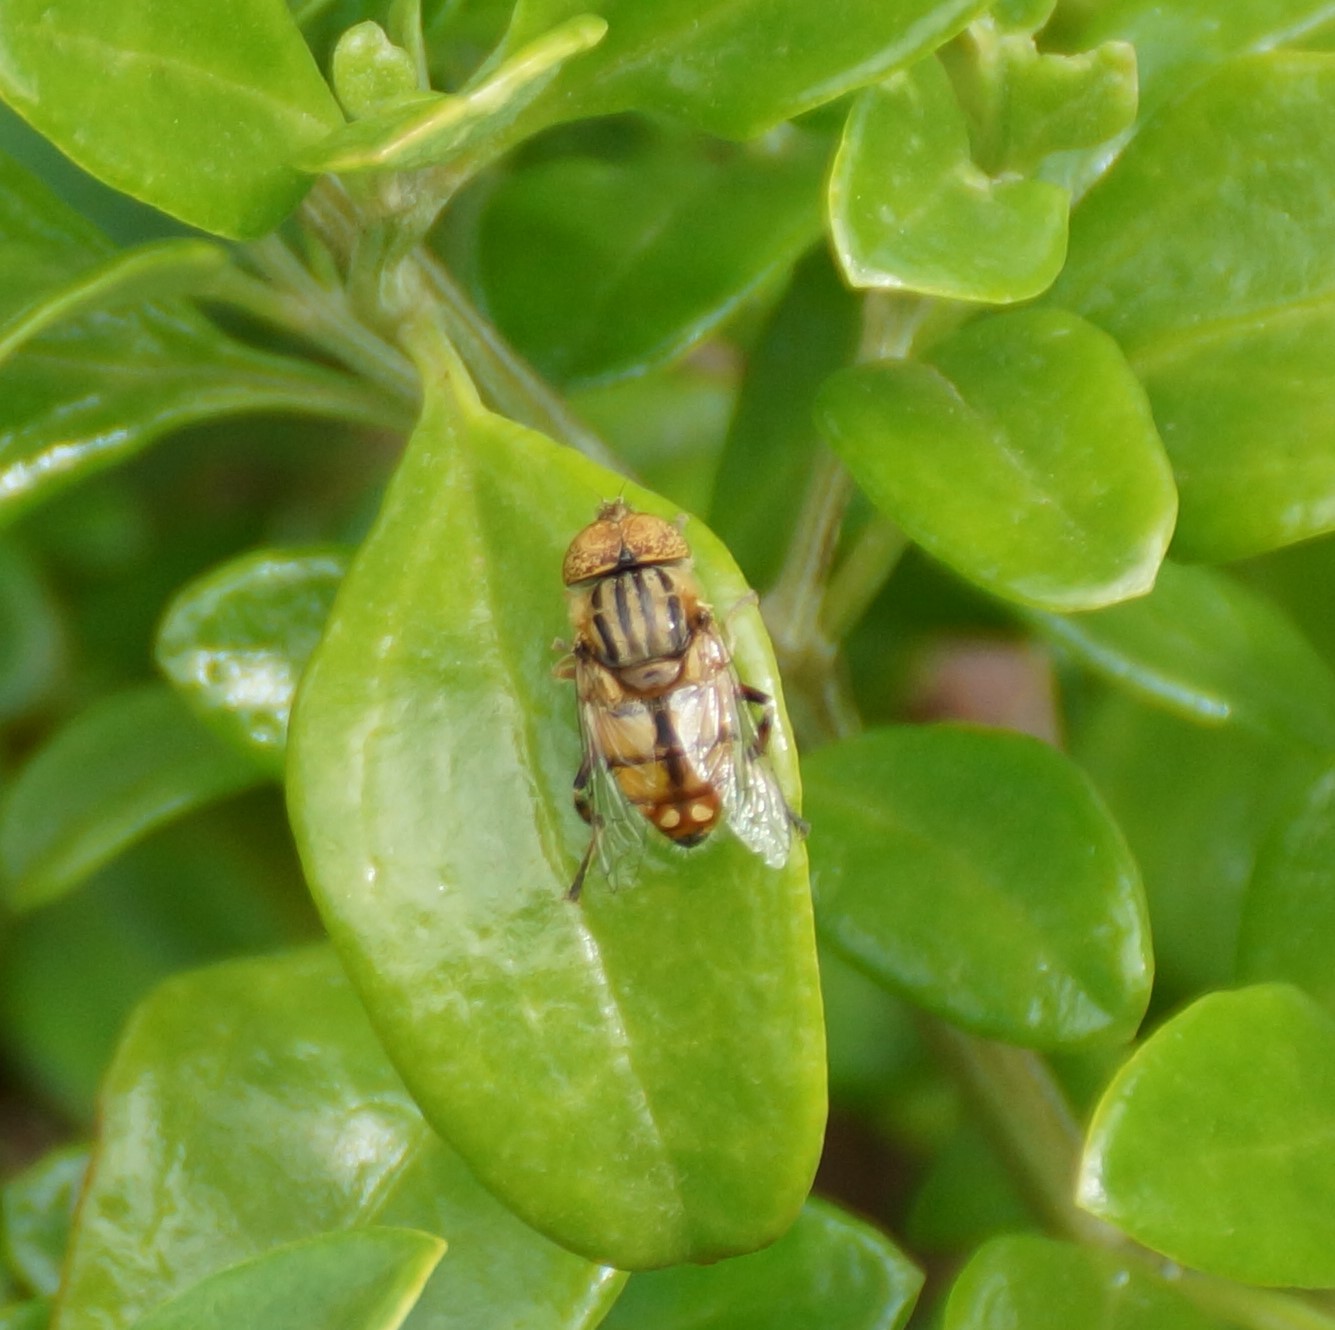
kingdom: Animalia
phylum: Arthropoda
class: Insecta
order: Diptera
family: Syrphidae
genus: Eristalinus
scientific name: Eristalinus punctulatus
